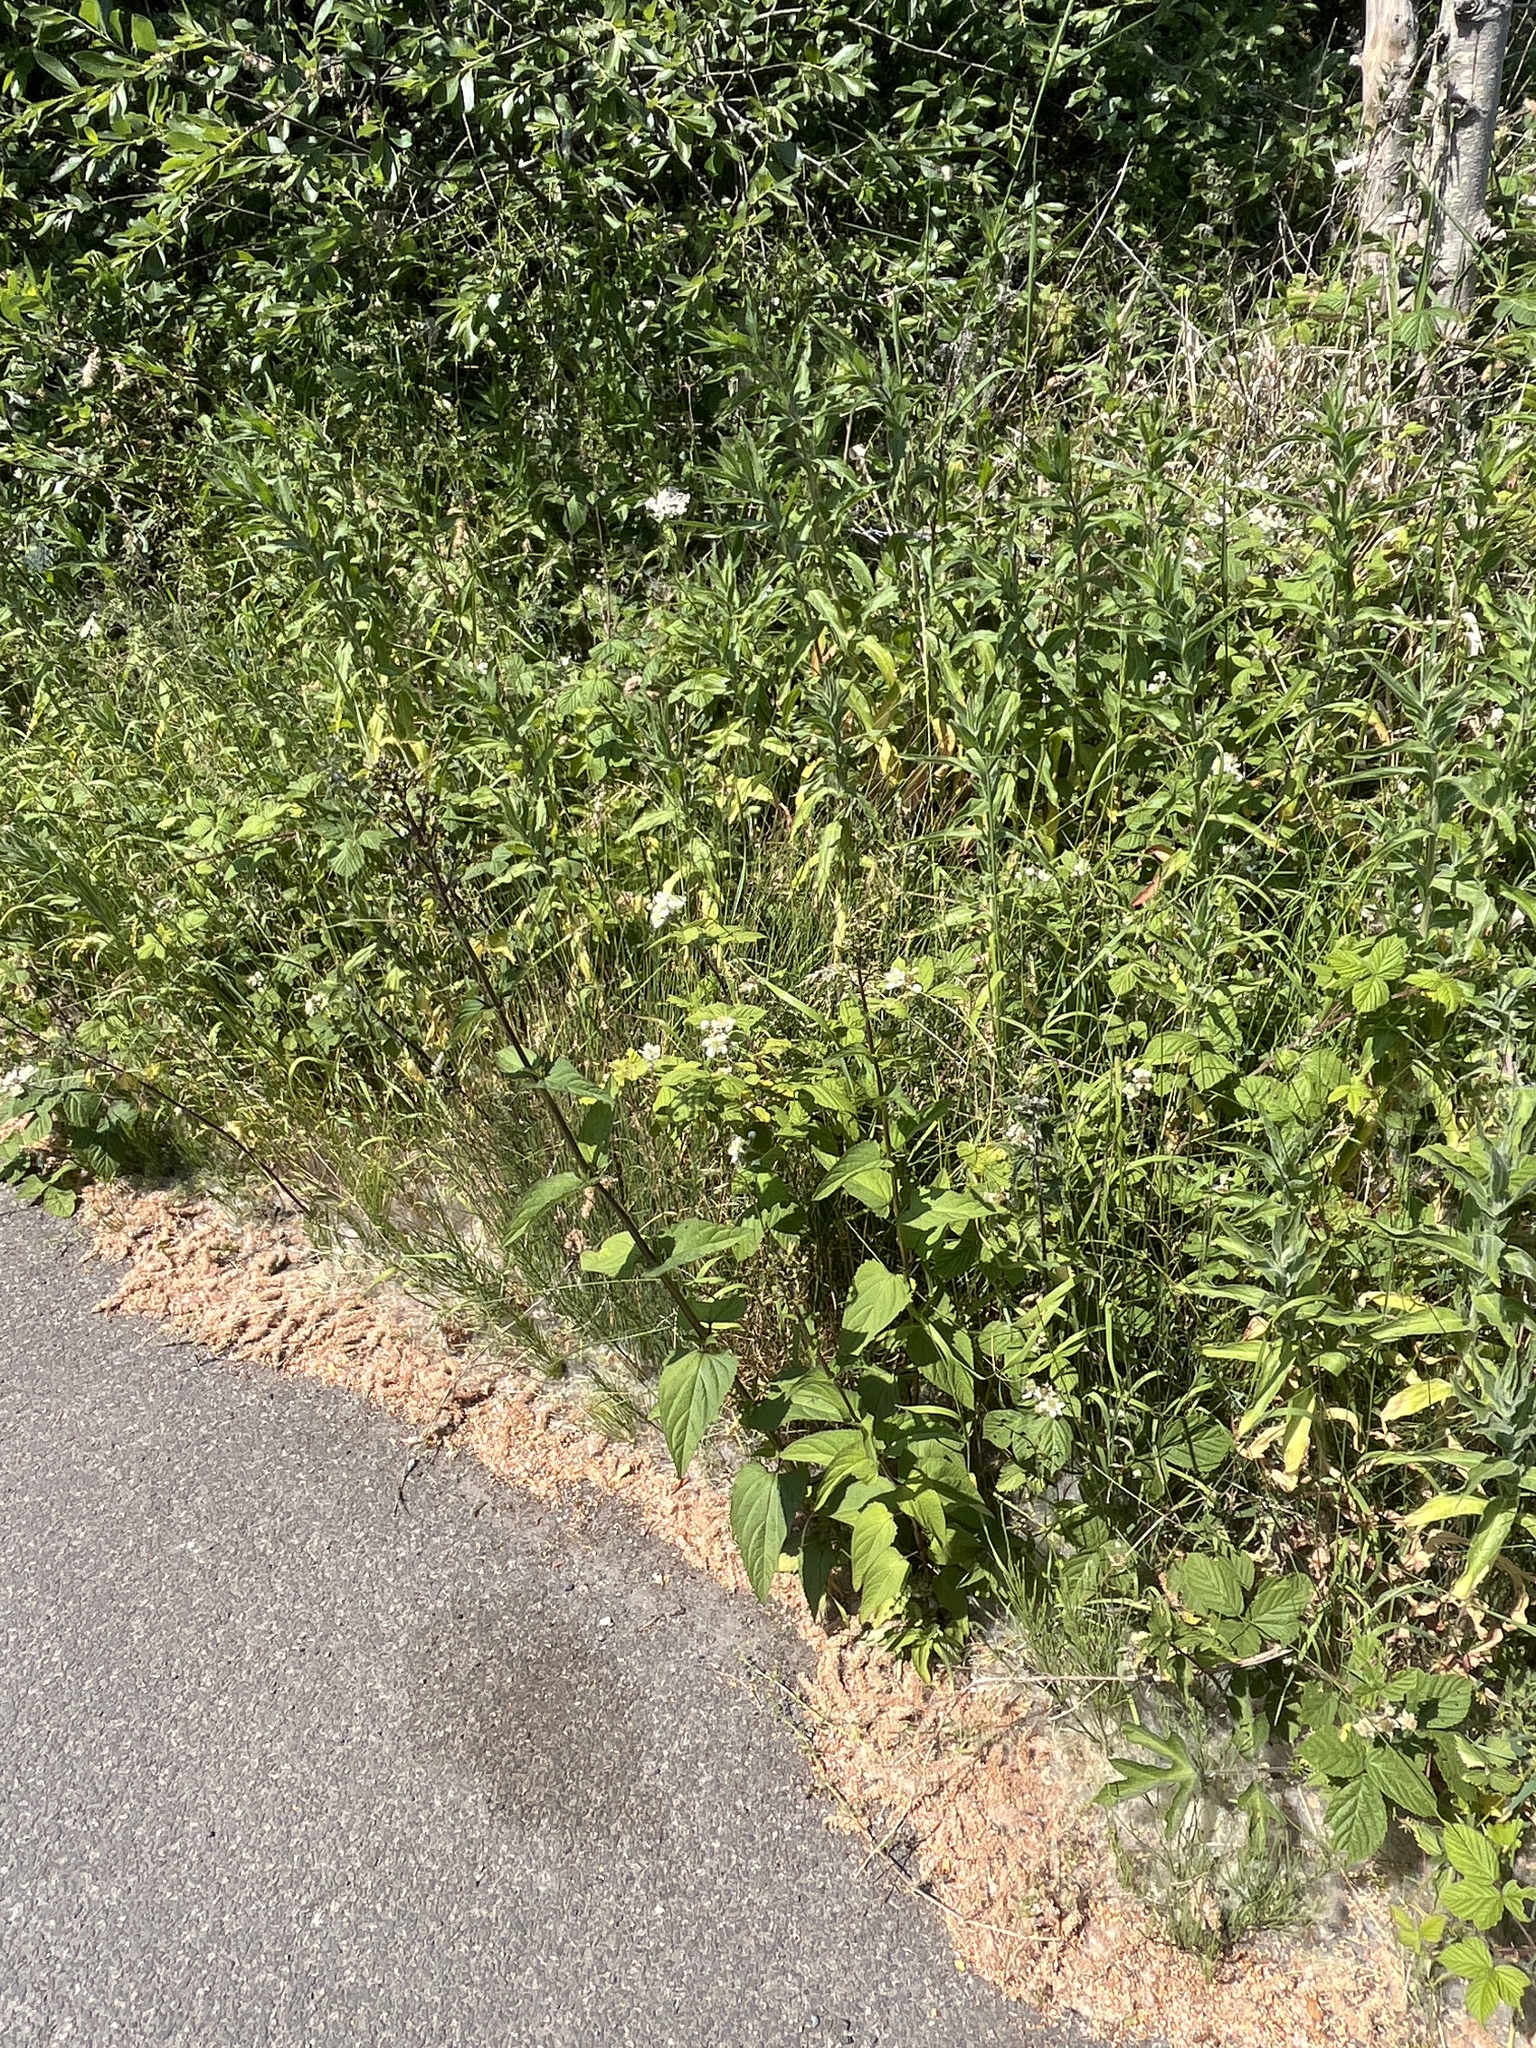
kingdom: Plantae
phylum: Tracheophyta
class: Magnoliopsida
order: Lamiales
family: Scrophulariaceae
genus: Scrophularia
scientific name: Scrophularia nodosa
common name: Common figwort
